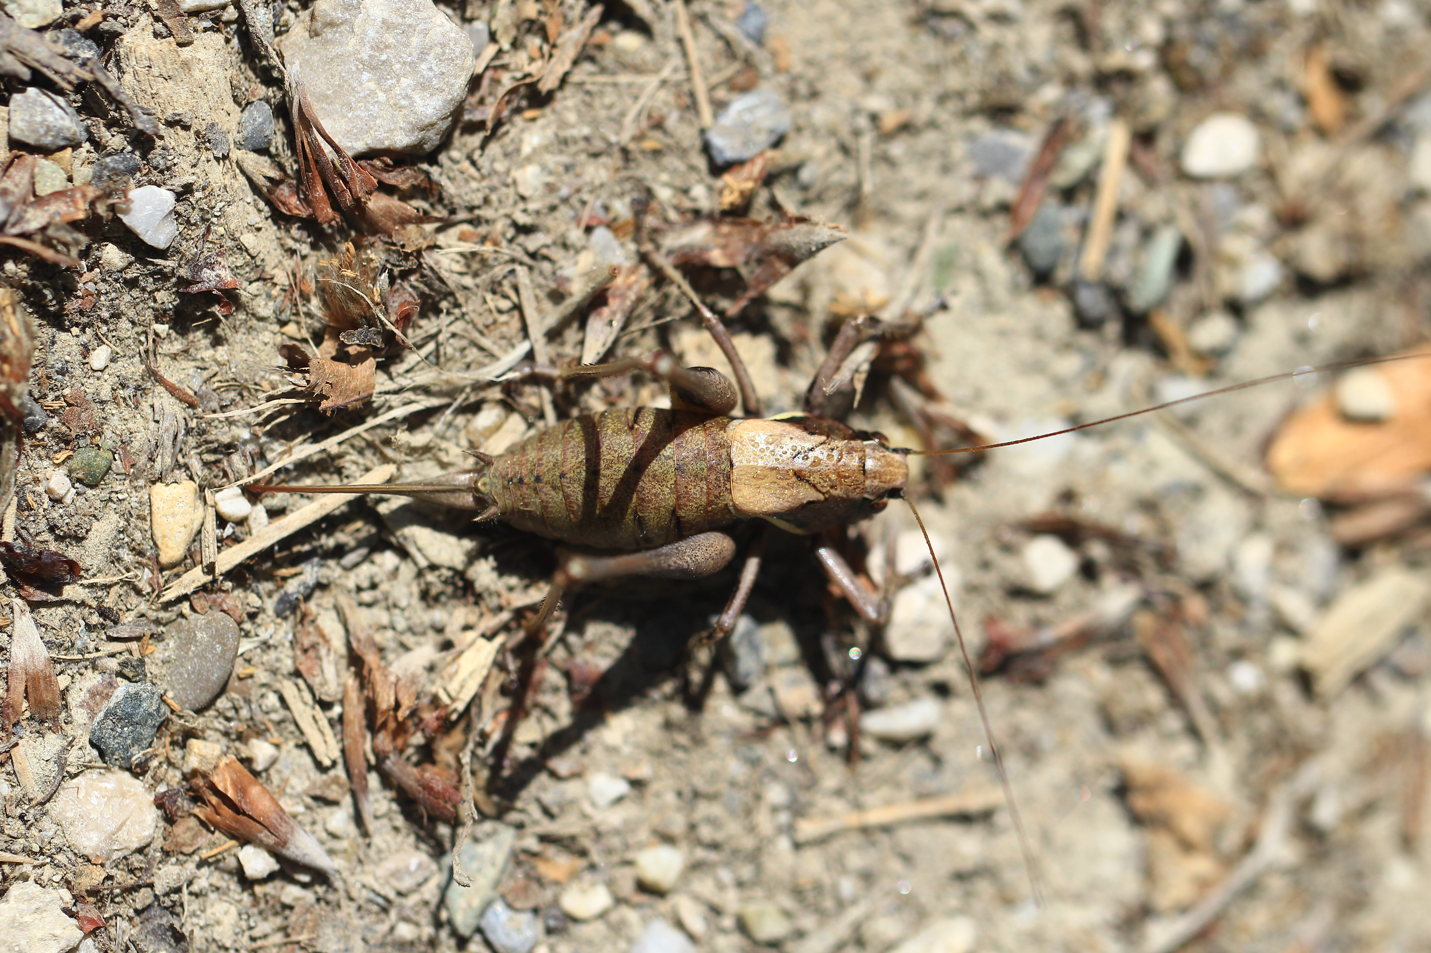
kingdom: Animalia
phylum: Arthropoda
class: Insecta
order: Orthoptera
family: Tettigoniidae
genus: Pholidoptera
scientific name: Pholidoptera aptera
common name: Alpine dark bush-cricket
